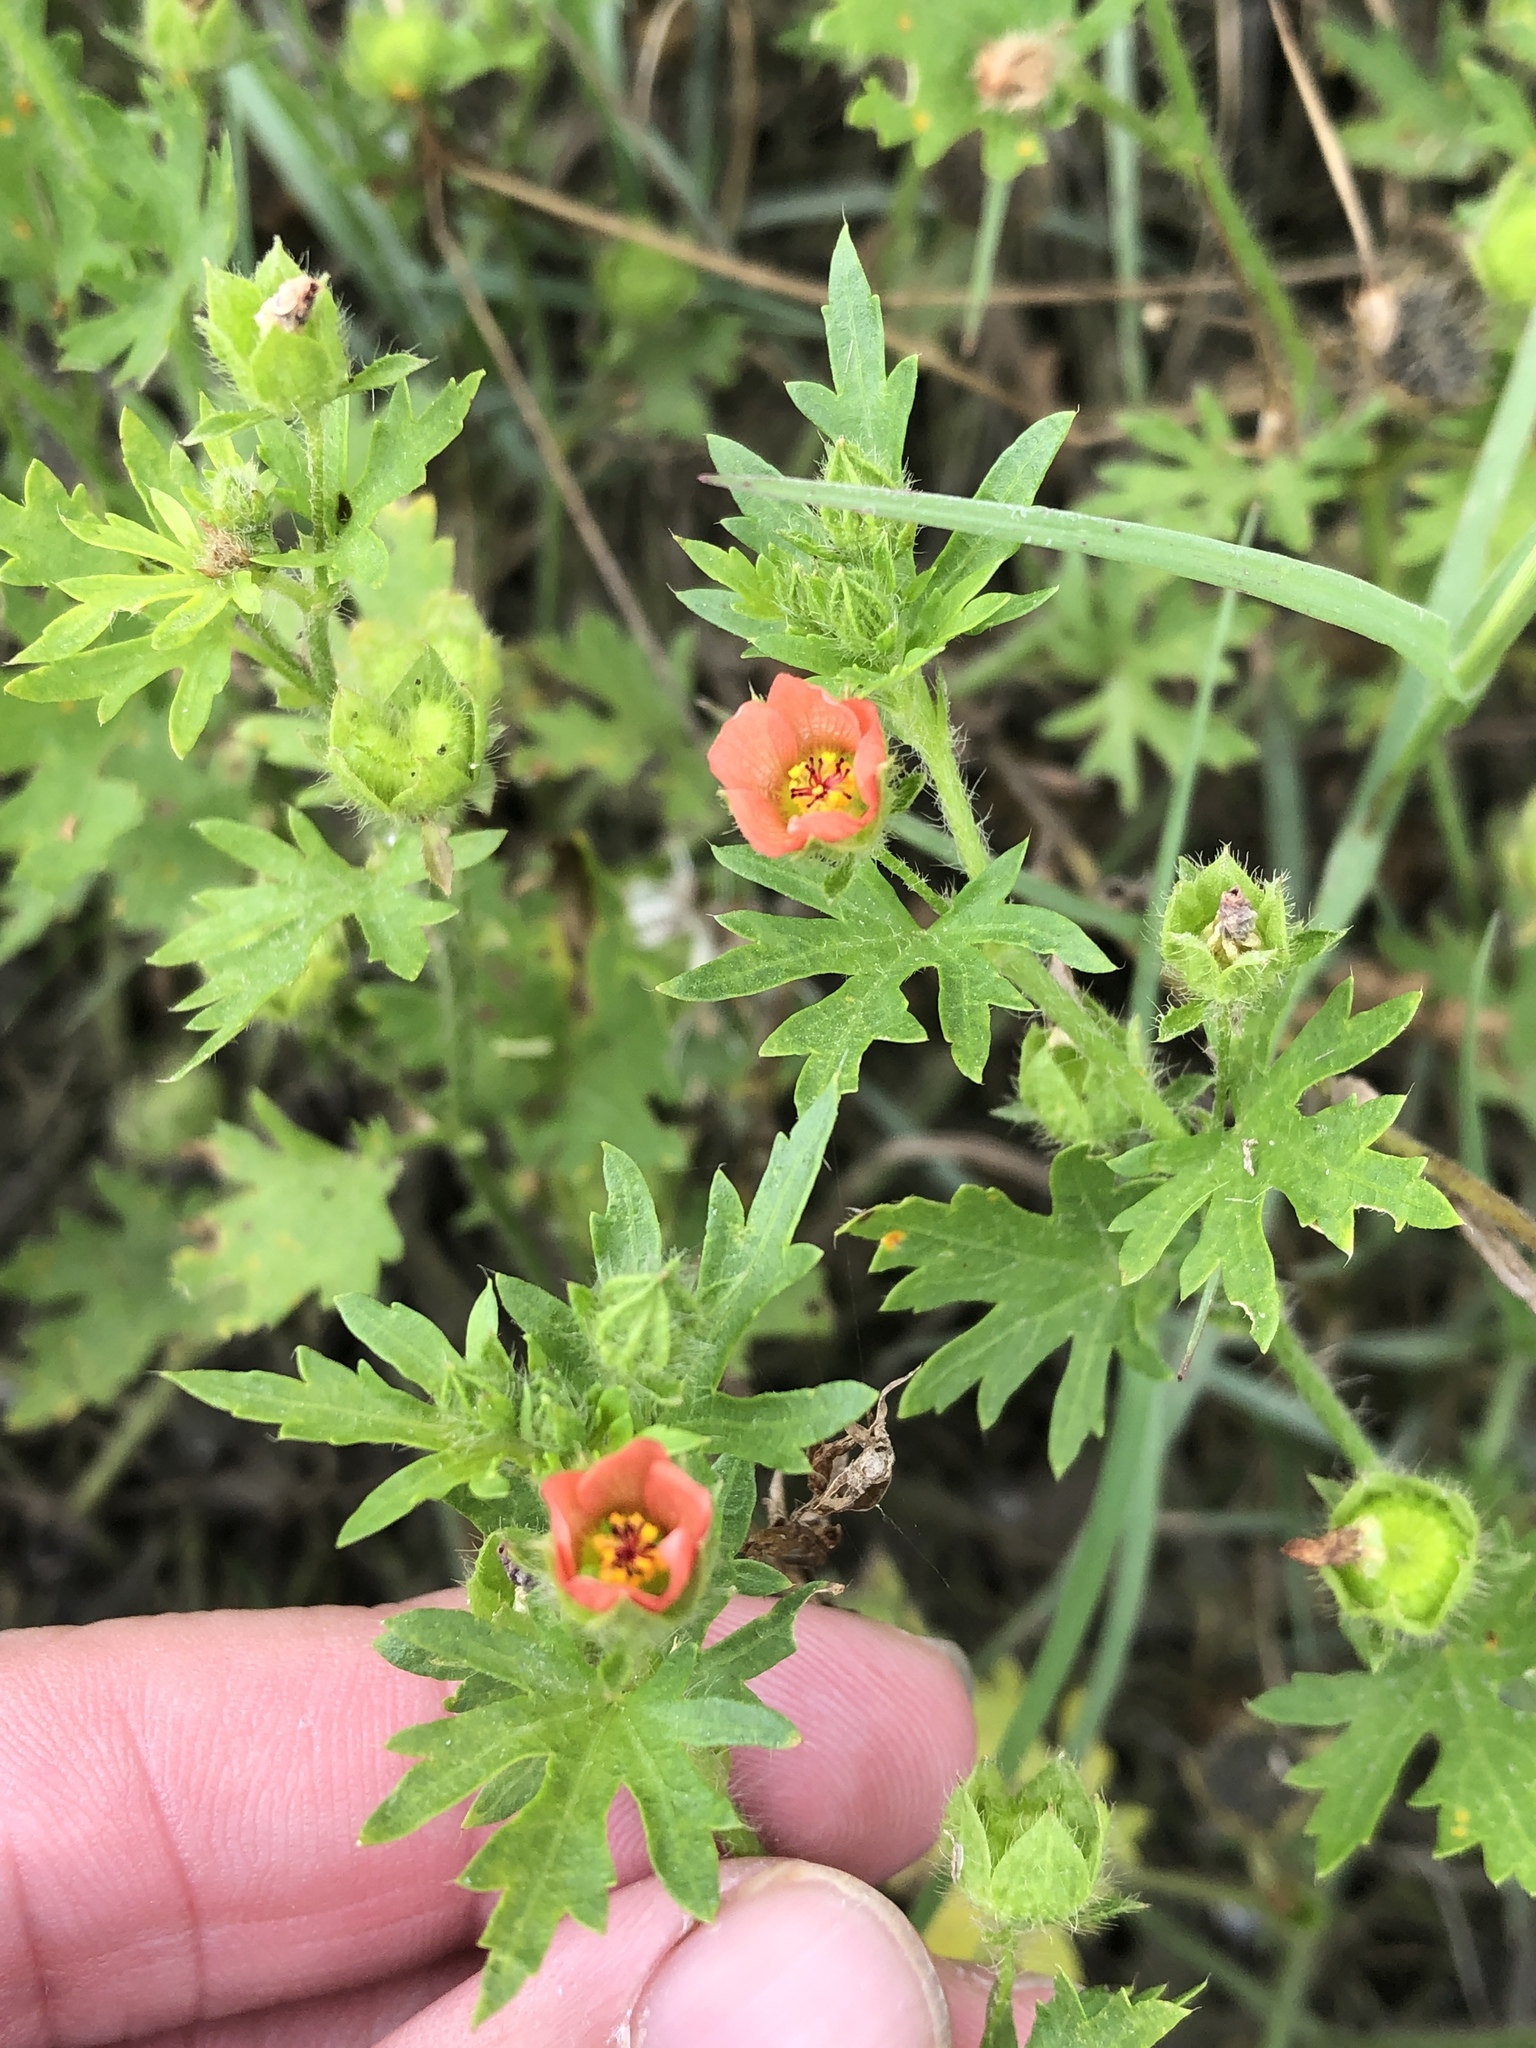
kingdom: Plantae
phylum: Tracheophyta
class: Magnoliopsida
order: Malvales
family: Malvaceae
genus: Modiola
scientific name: Modiola caroliniana
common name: Carolina bristlemallow
